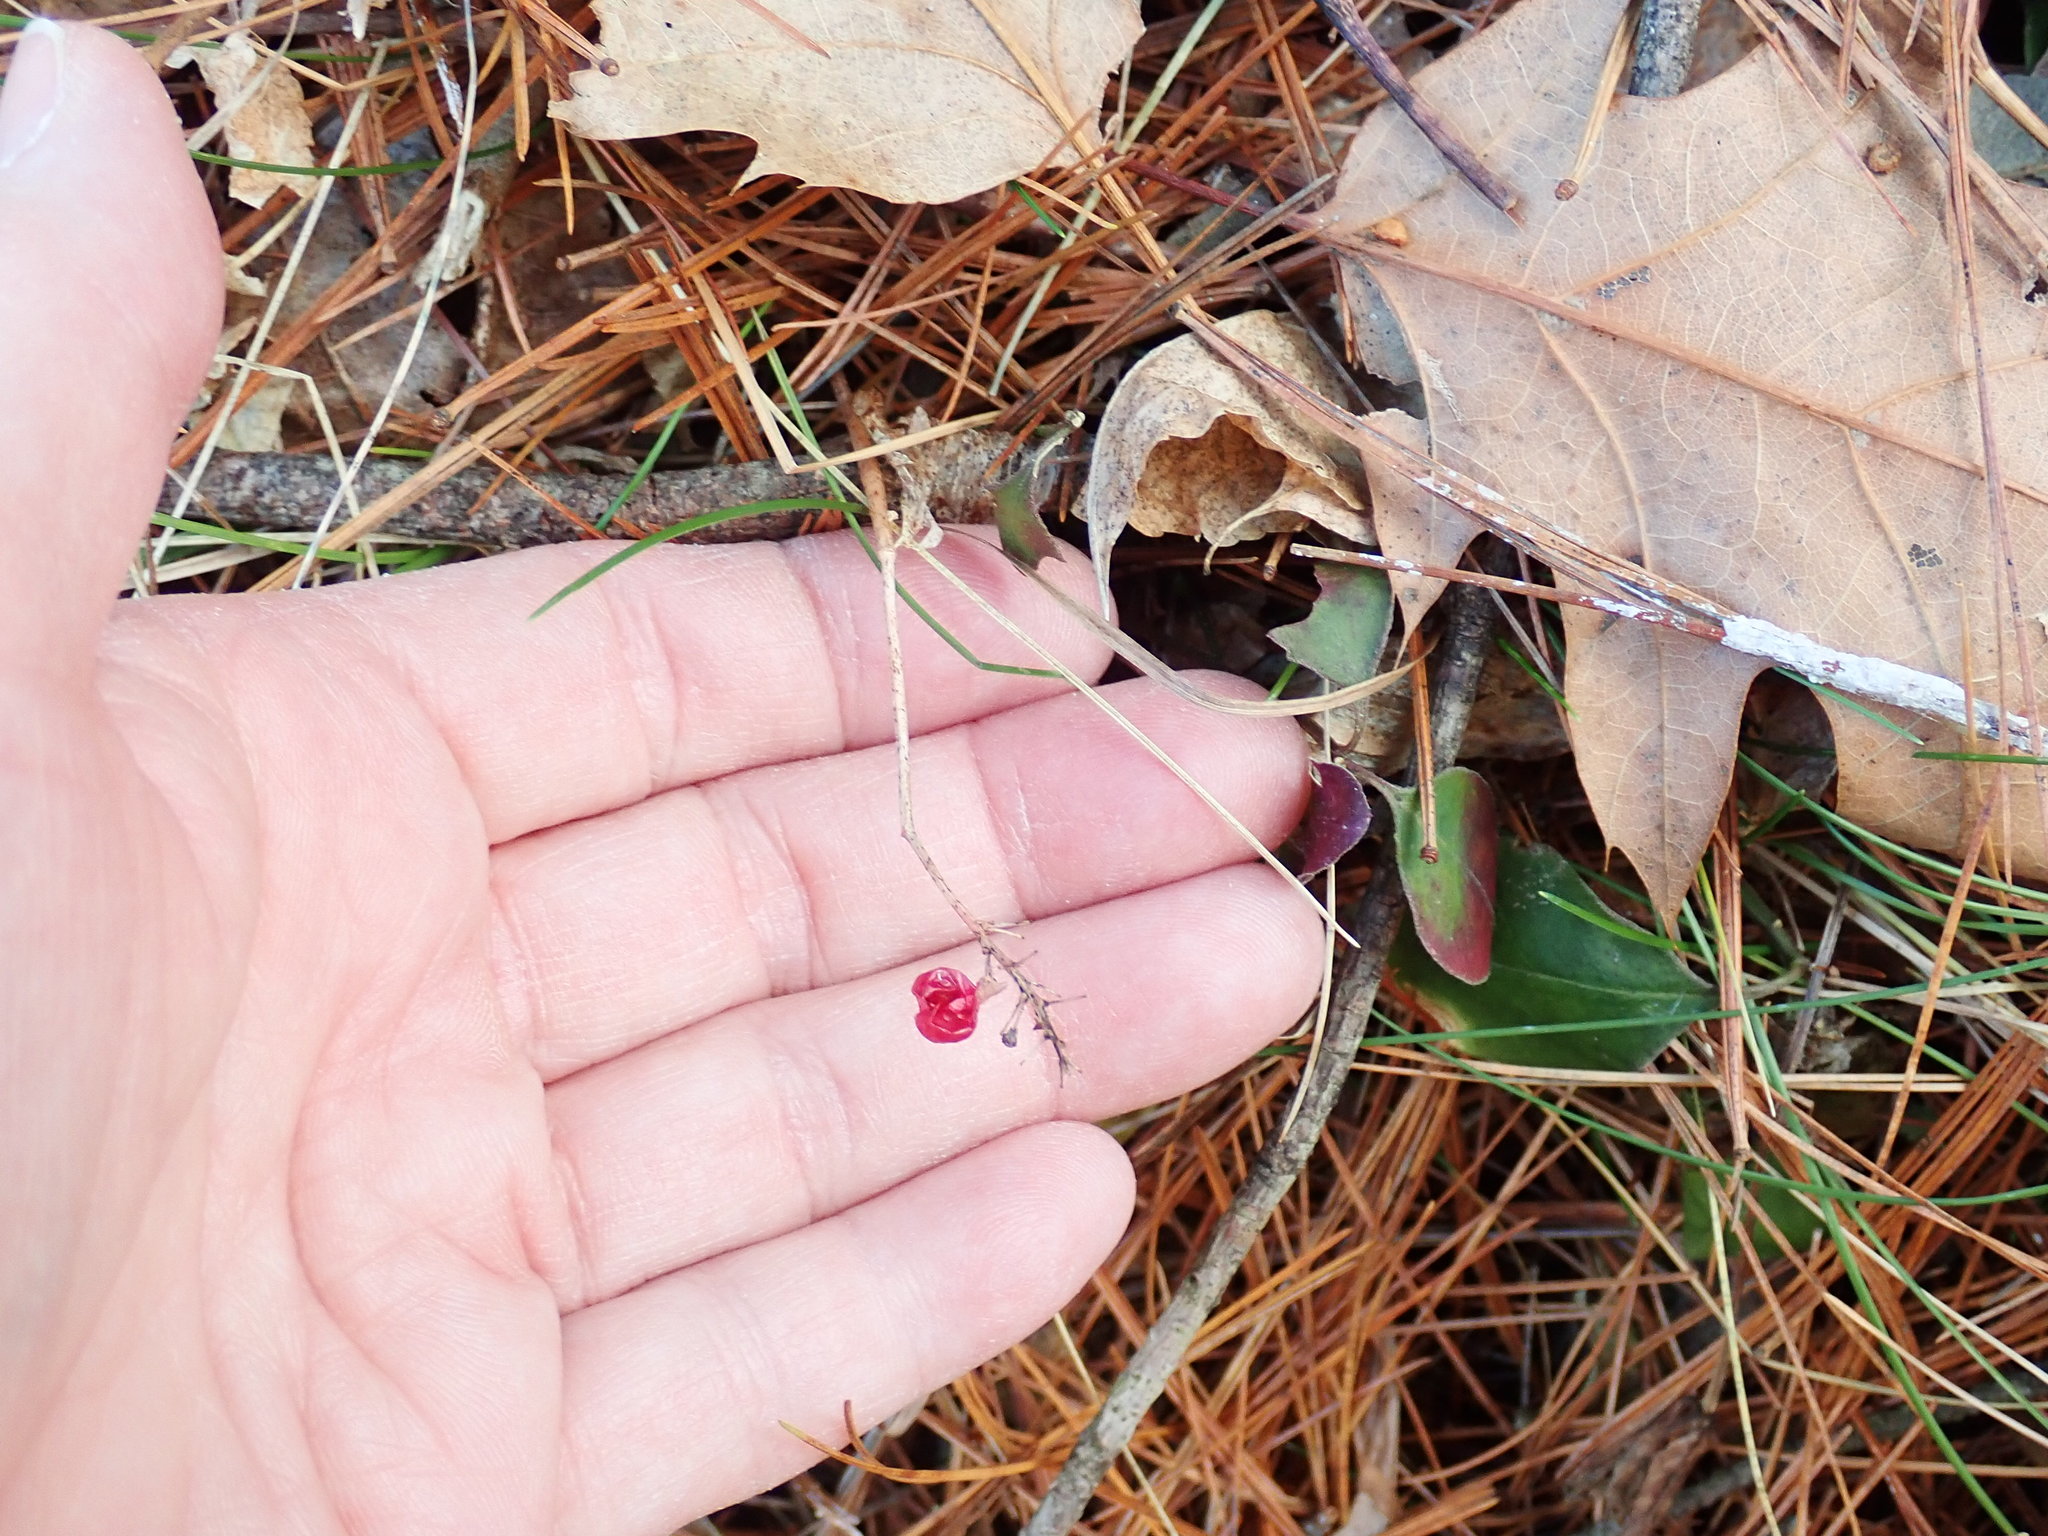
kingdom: Plantae
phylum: Tracheophyta
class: Liliopsida
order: Asparagales
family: Asparagaceae
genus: Maianthemum
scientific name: Maianthemum canadense
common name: False lily-of-the-valley
